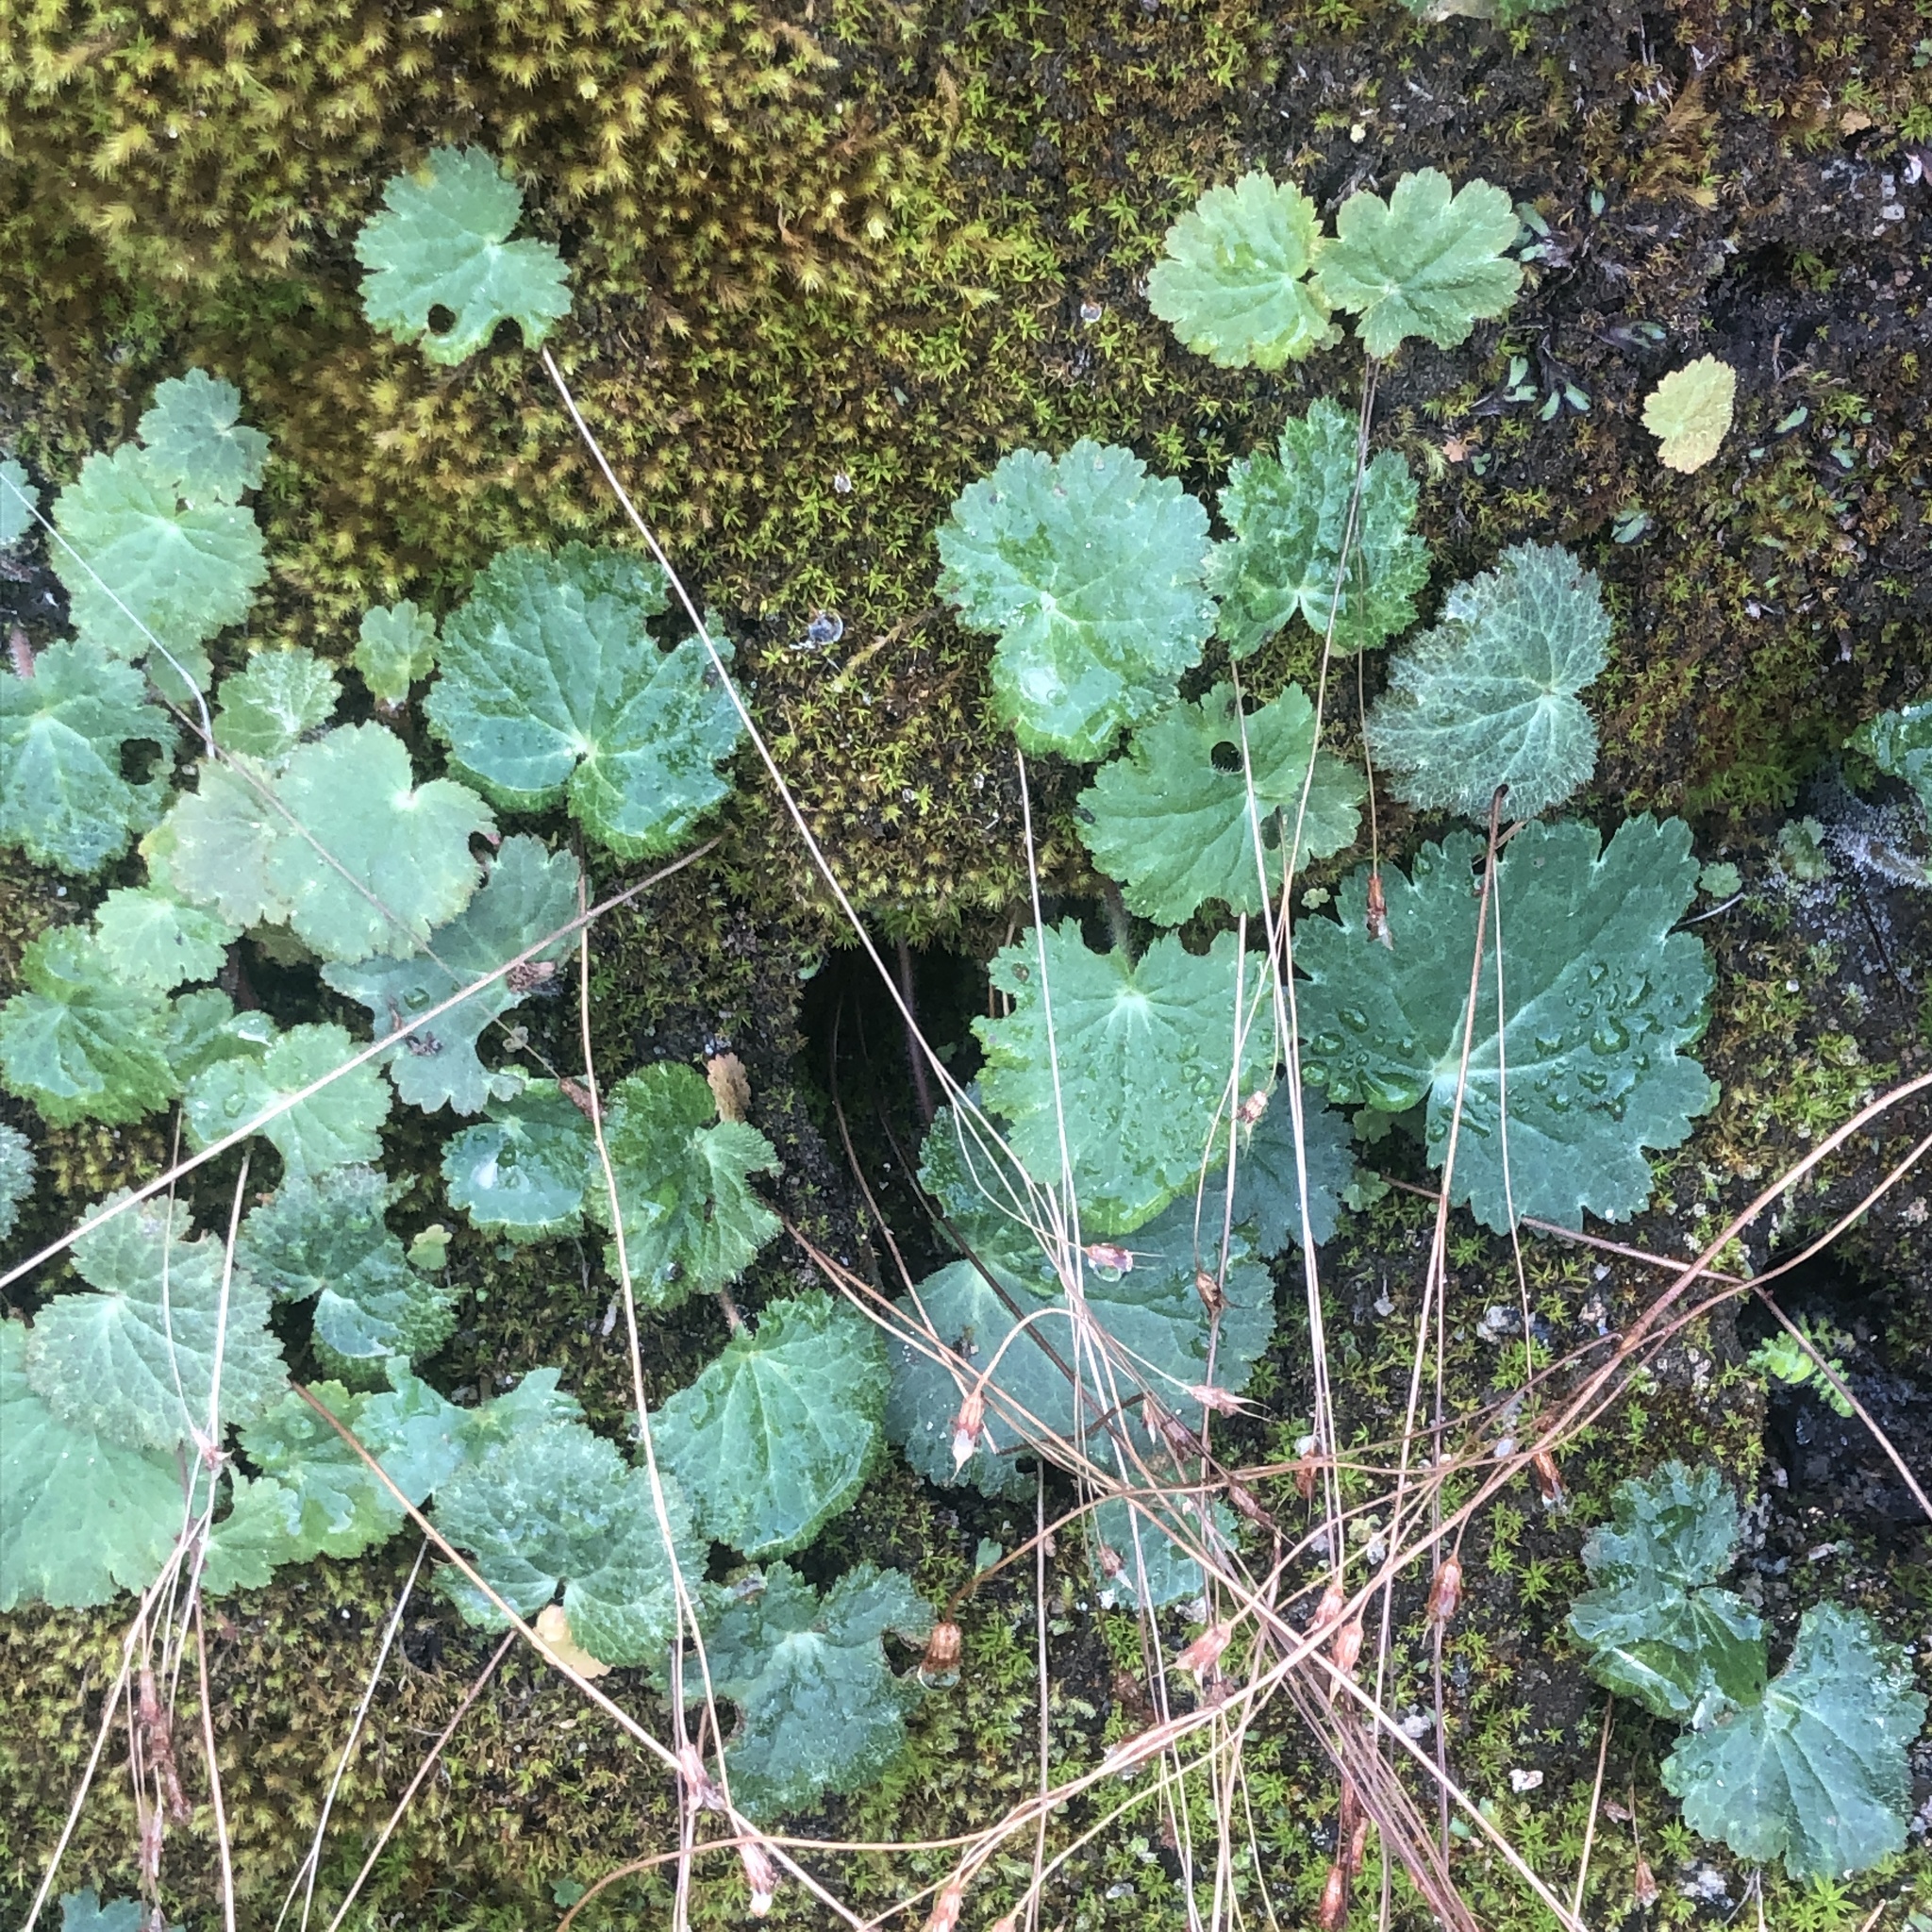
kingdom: Plantae
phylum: Tracheophyta
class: Magnoliopsida
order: Saxifragales
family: Saxifragaceae
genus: Jepsonia
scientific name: Jepsonia parryi
